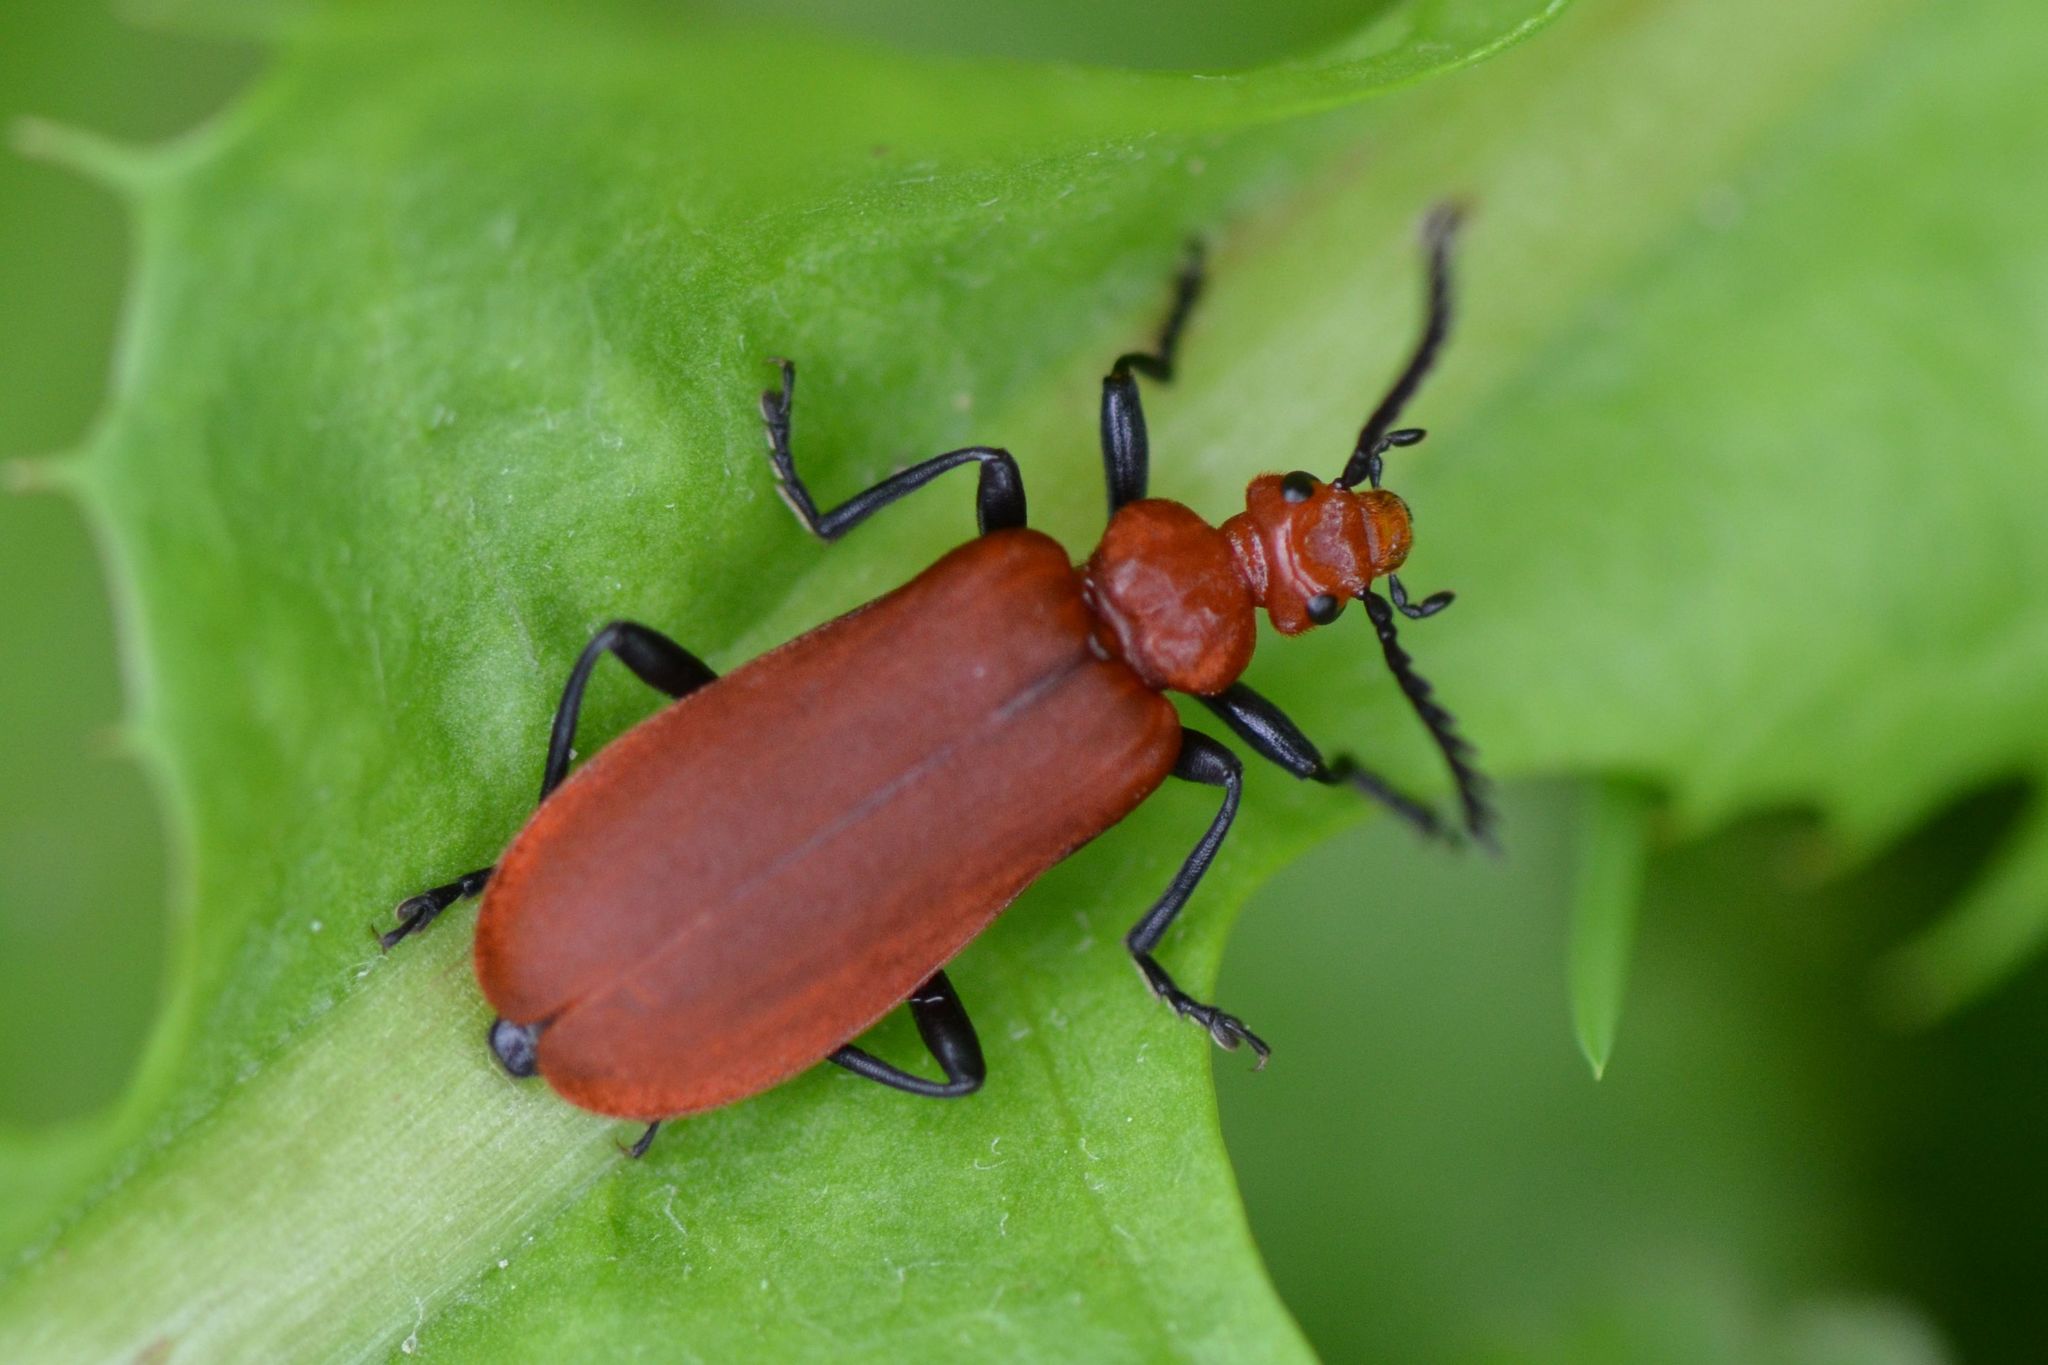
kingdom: Animalia
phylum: Arthropoda
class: Insecta
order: Coleoptera
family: Pyrochroidae
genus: Pyrochroa
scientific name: Pyrochroa serraticornis
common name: Red-headed cardinal beetle
